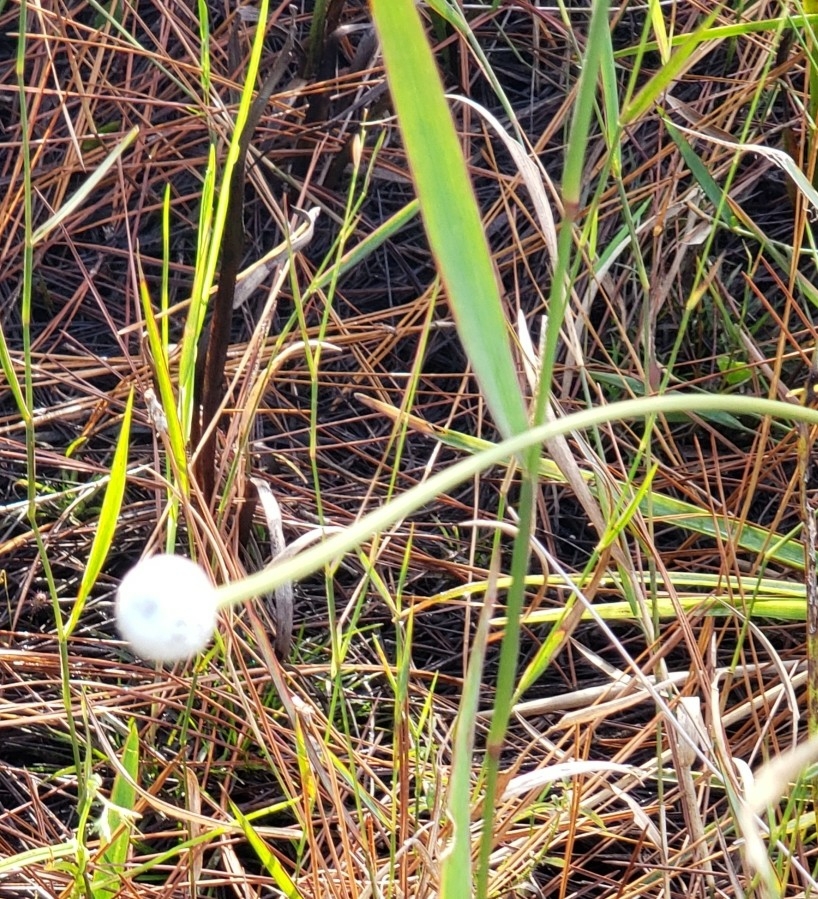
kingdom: Plantae
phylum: Tracheophyta
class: Liliopsida
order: Poales
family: Eriocaulaceae
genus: Eriocaulon
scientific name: Eriocaulon decangulare
